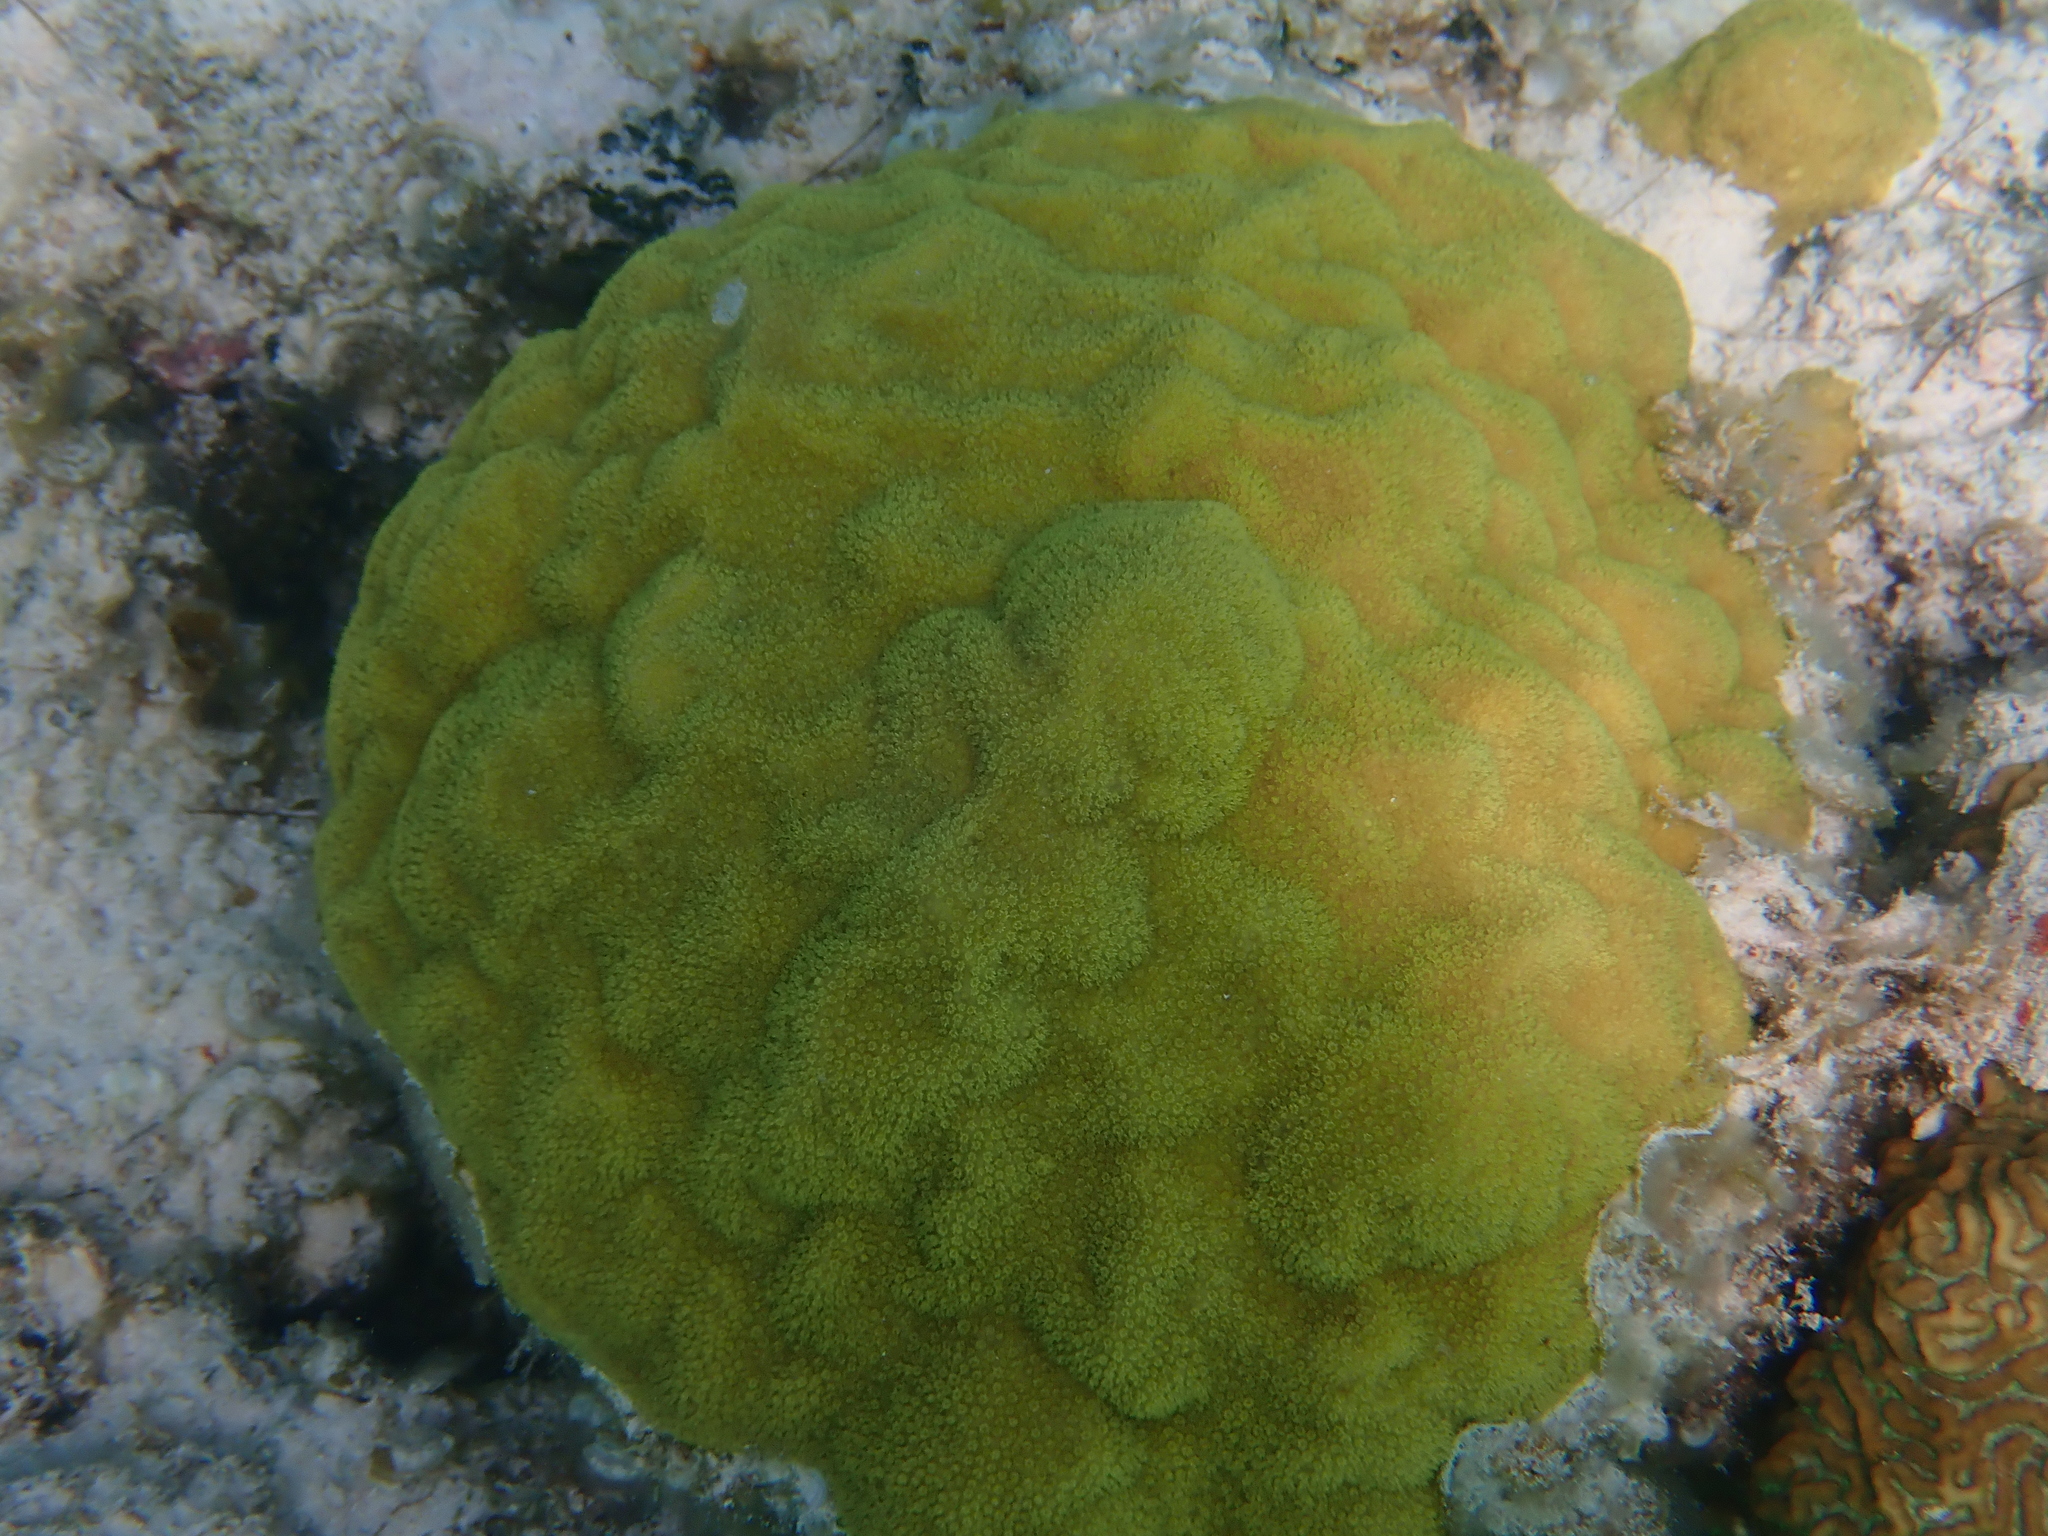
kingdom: Animalia
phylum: Cnidaria
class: Anthozoa
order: Scleractinia
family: Poritidae
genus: Porites
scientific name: Porites astreoides
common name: Mustard hill coral
